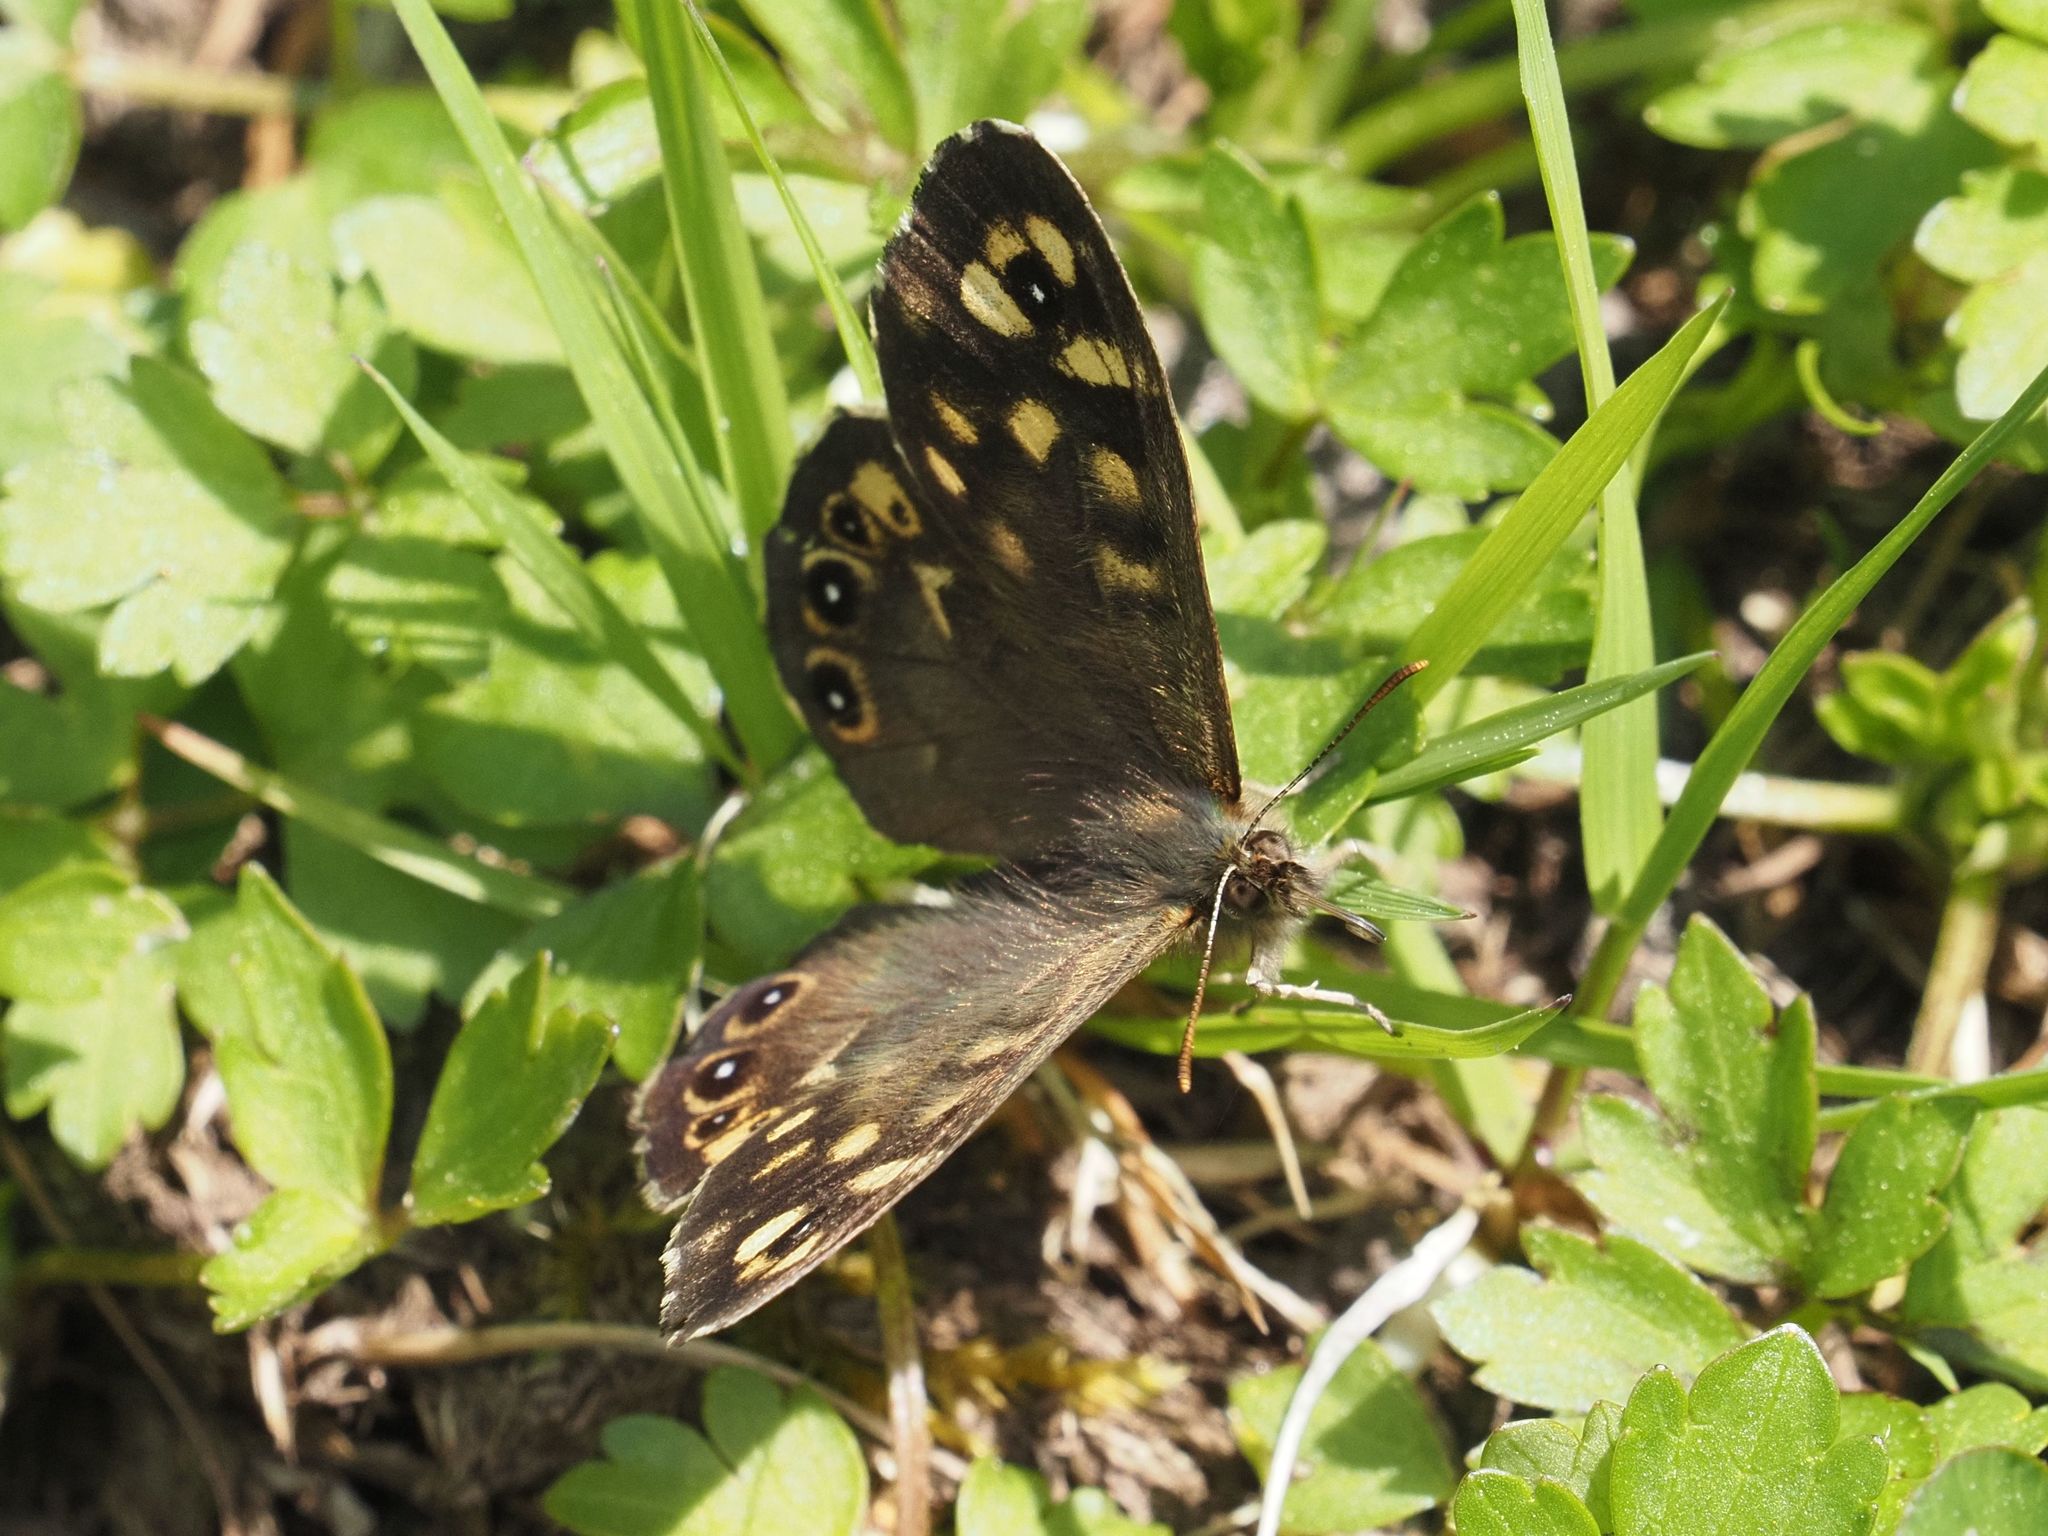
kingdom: Animalia
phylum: Arthropoda
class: Insecta
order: Lepidoptera
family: Nymphalidae
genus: Pararge
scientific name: Pararge aegeria
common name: Speckled wood
